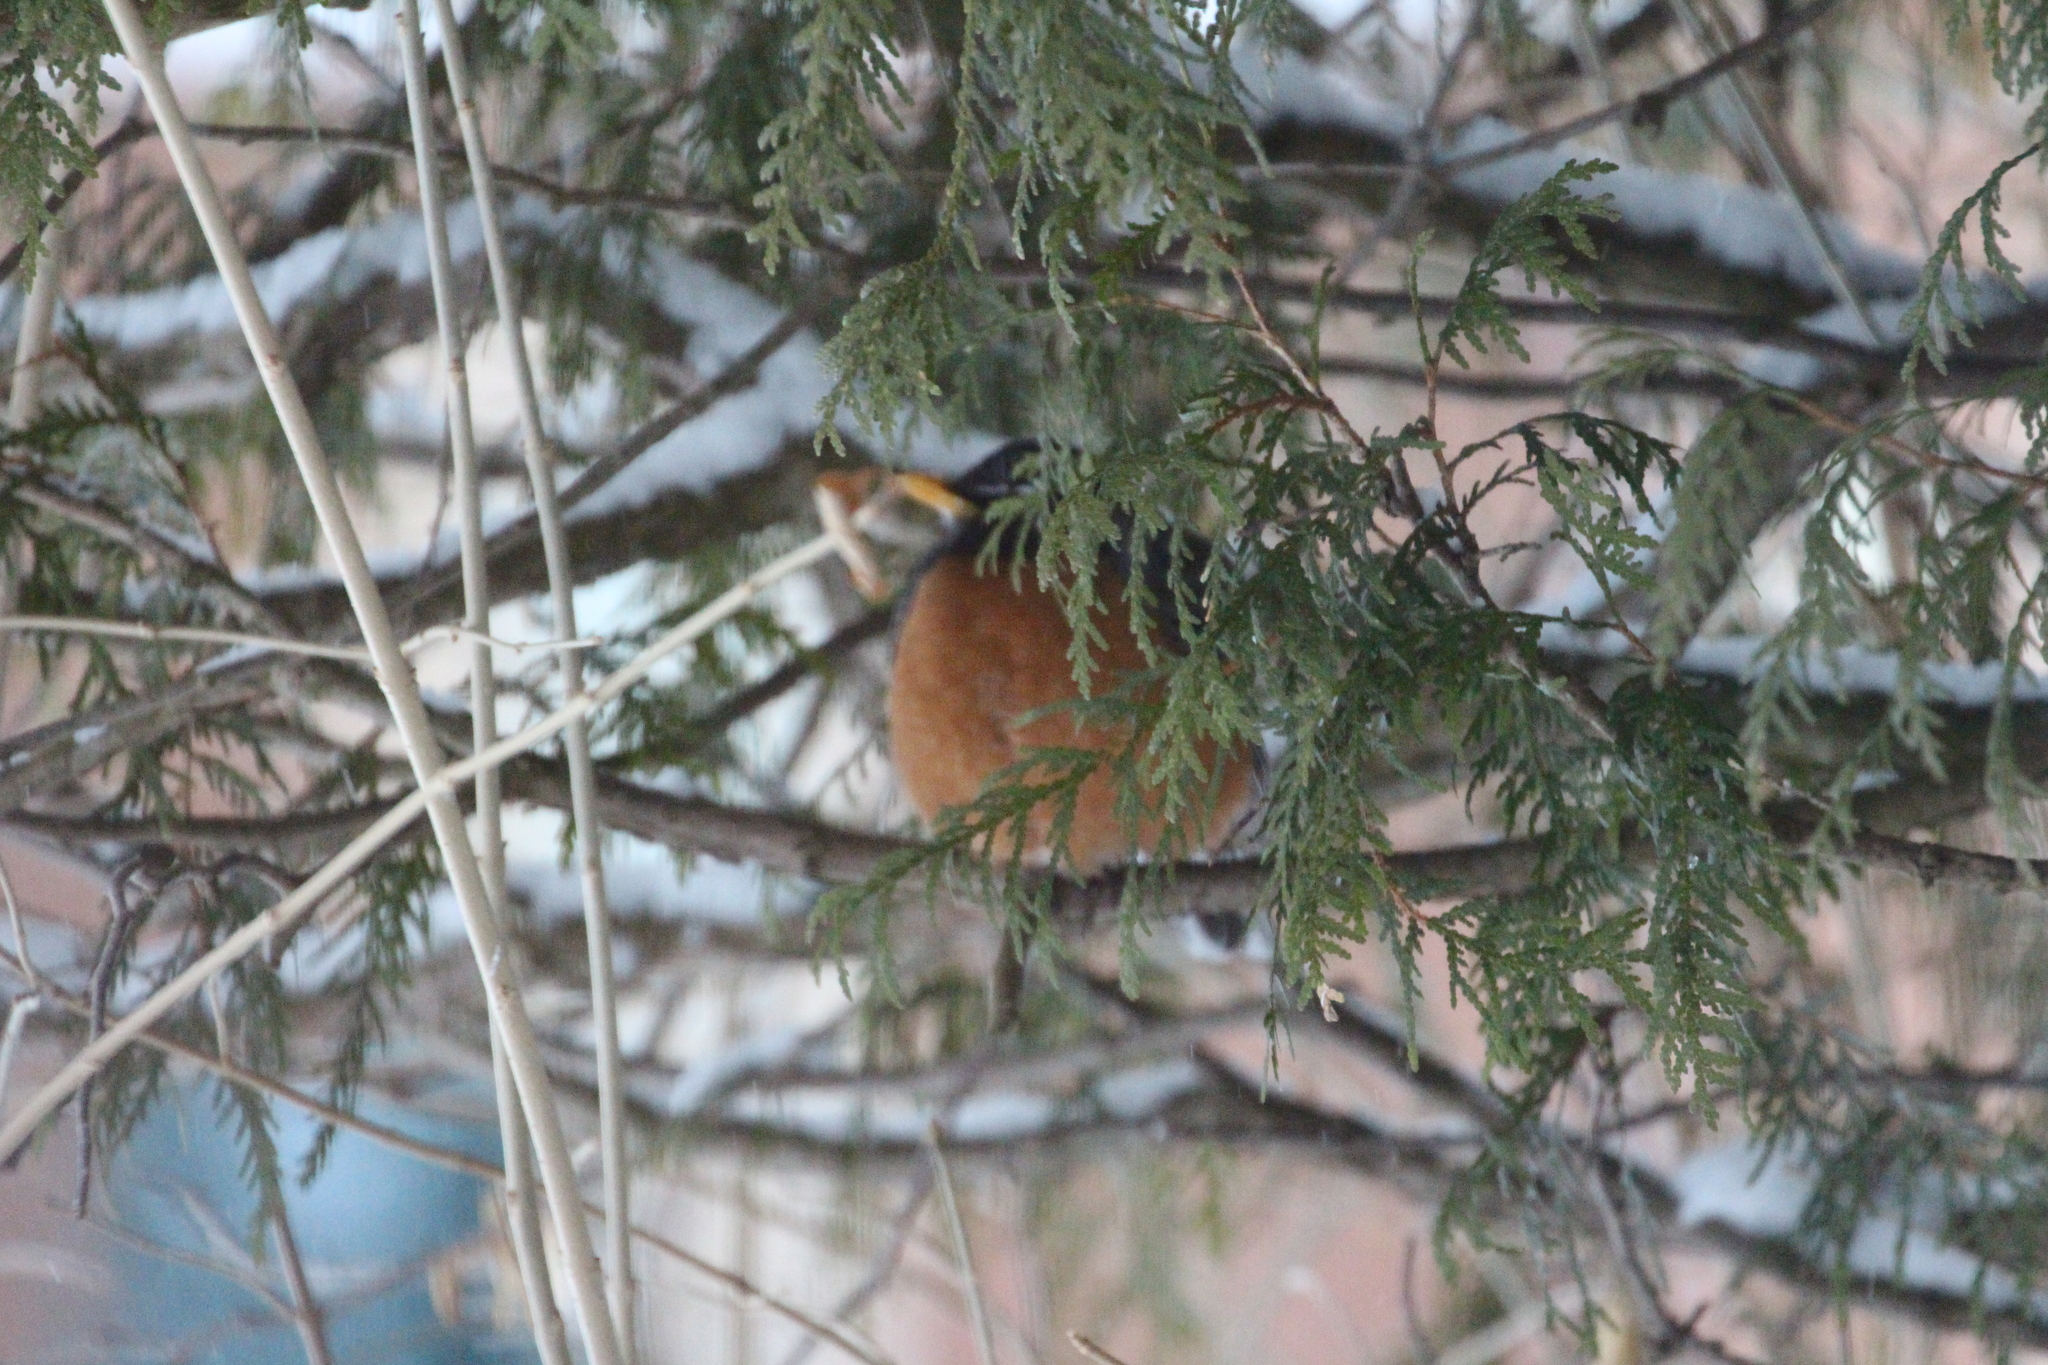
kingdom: Animalia
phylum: Chordata
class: Aves
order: Passeriformes
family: Turdidae
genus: Turdus
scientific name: Turdus migratorius
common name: American robin
